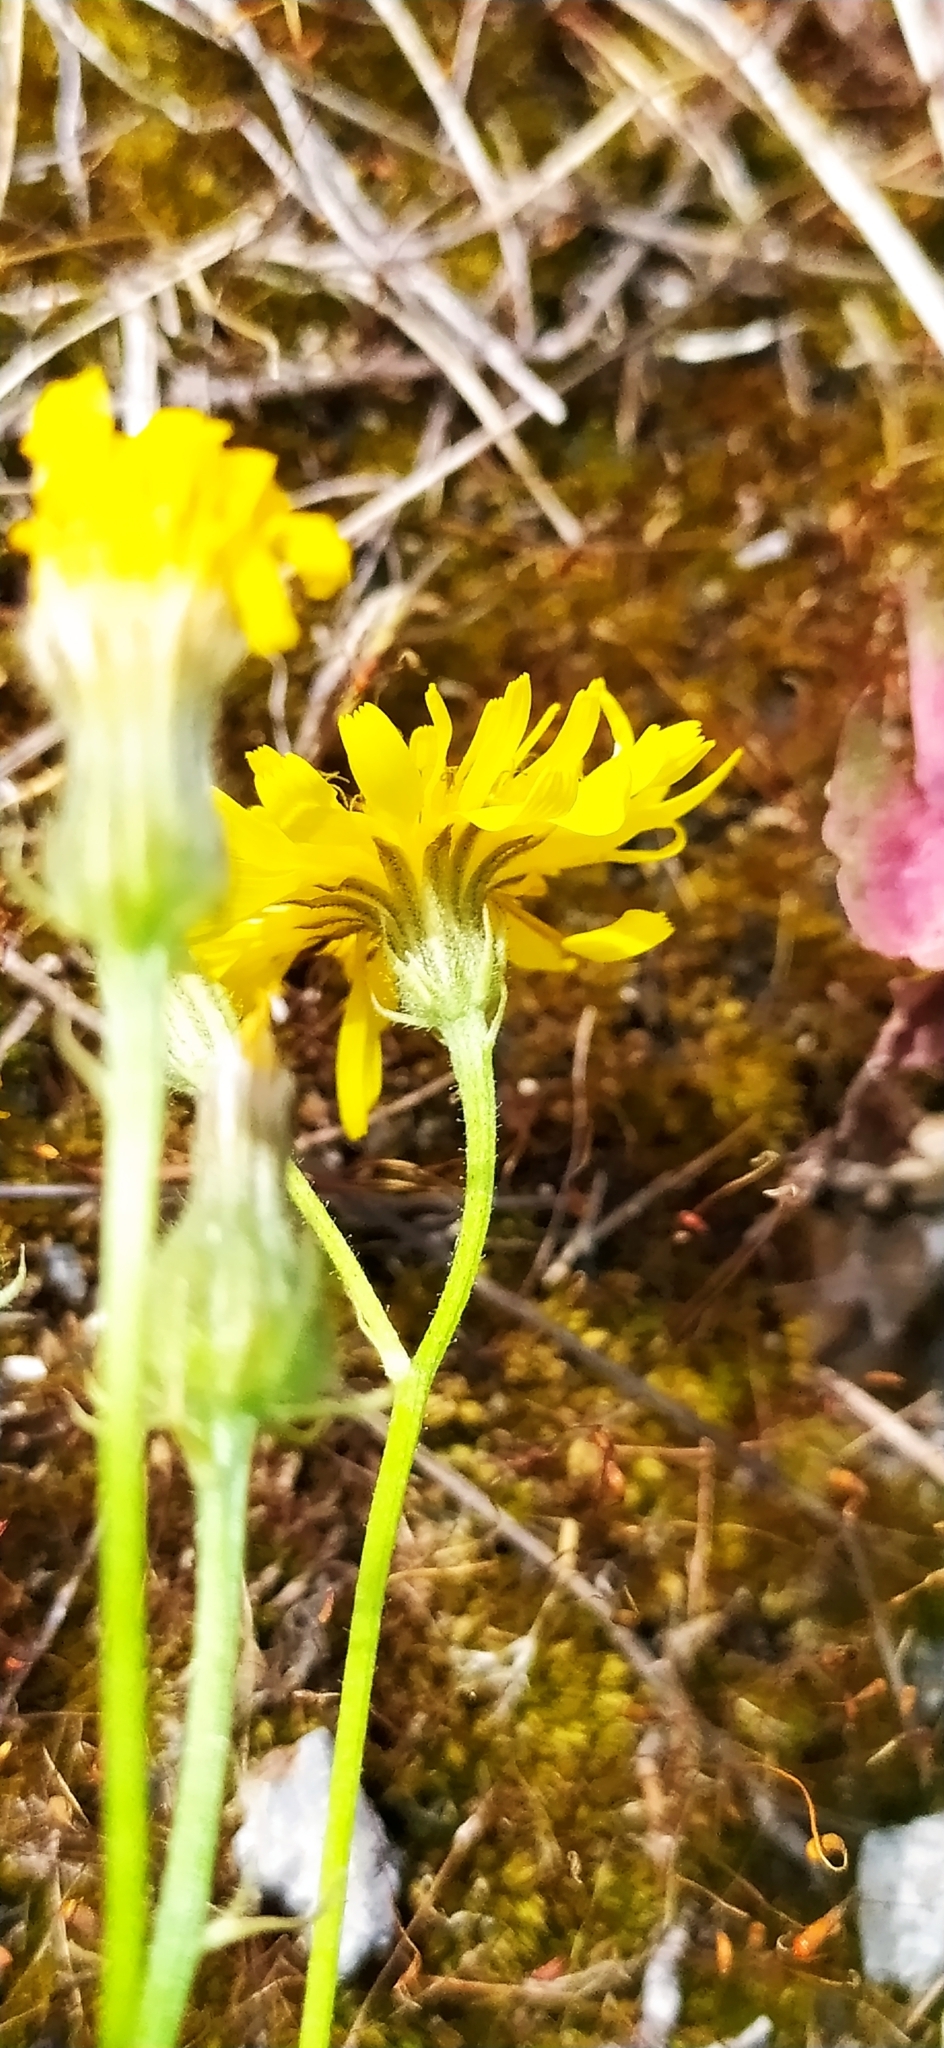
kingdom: Plantae
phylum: Tracheophyta
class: Magnoliopsida
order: Asterales
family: Asteraceae
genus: Crepis
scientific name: Crepis tectorum
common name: Narrow-leaved hawk's-beard
